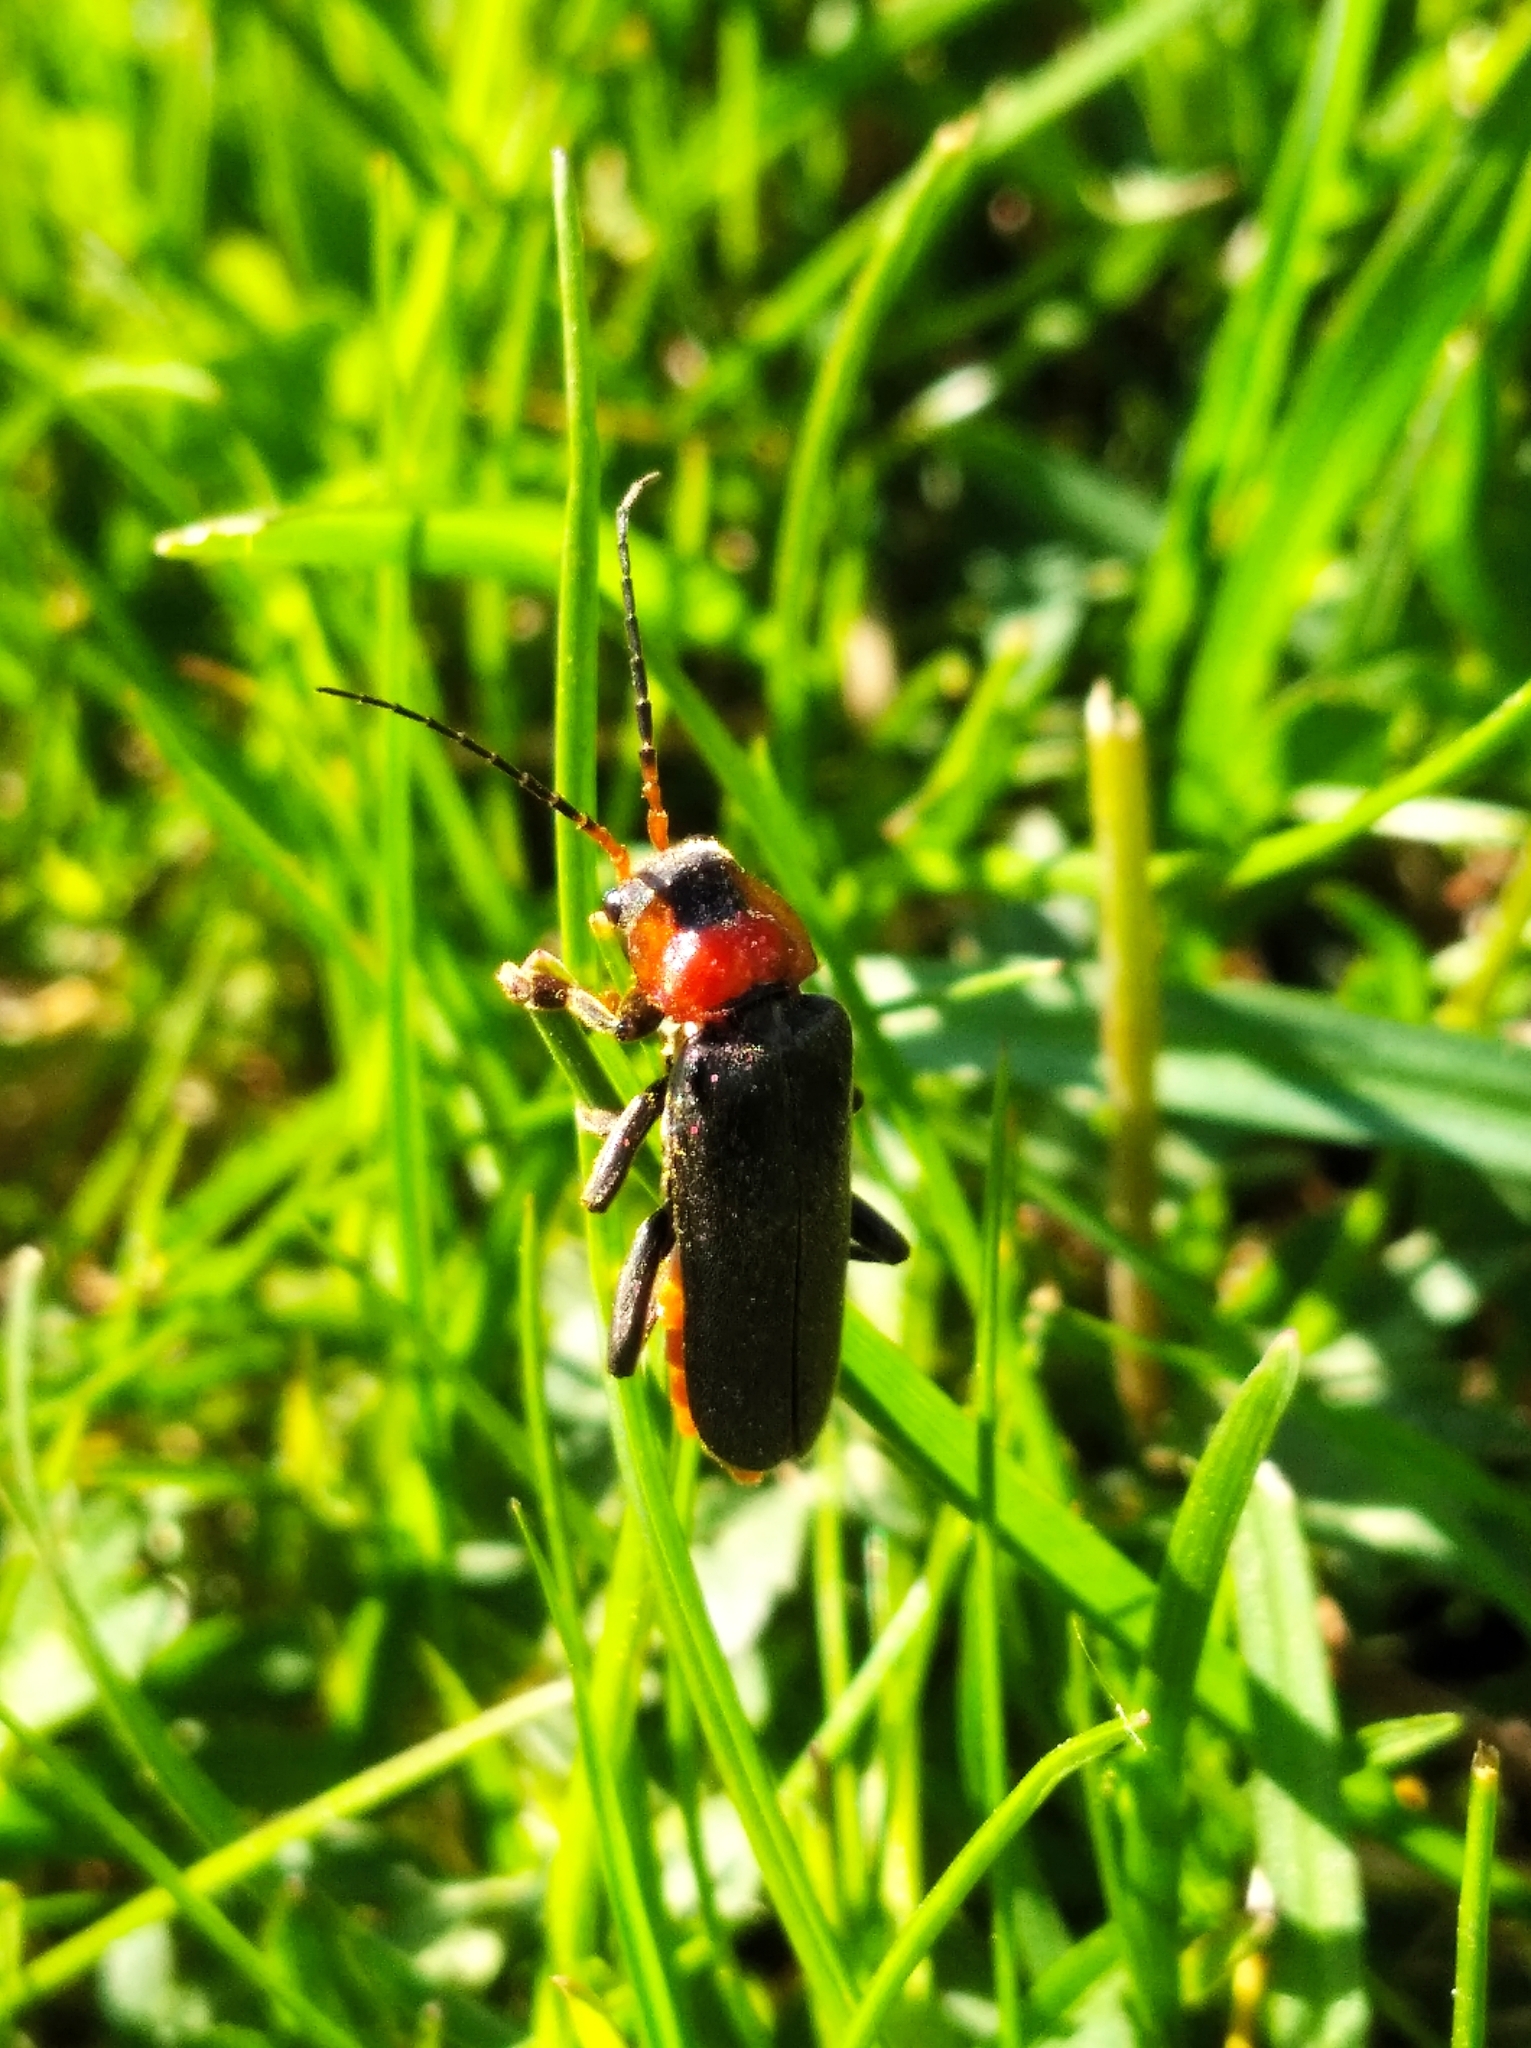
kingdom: Animalia
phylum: Arthropoda
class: Insecta
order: Coleoptera
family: Cantharidae
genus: Cantharis
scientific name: Cantharis fusca
